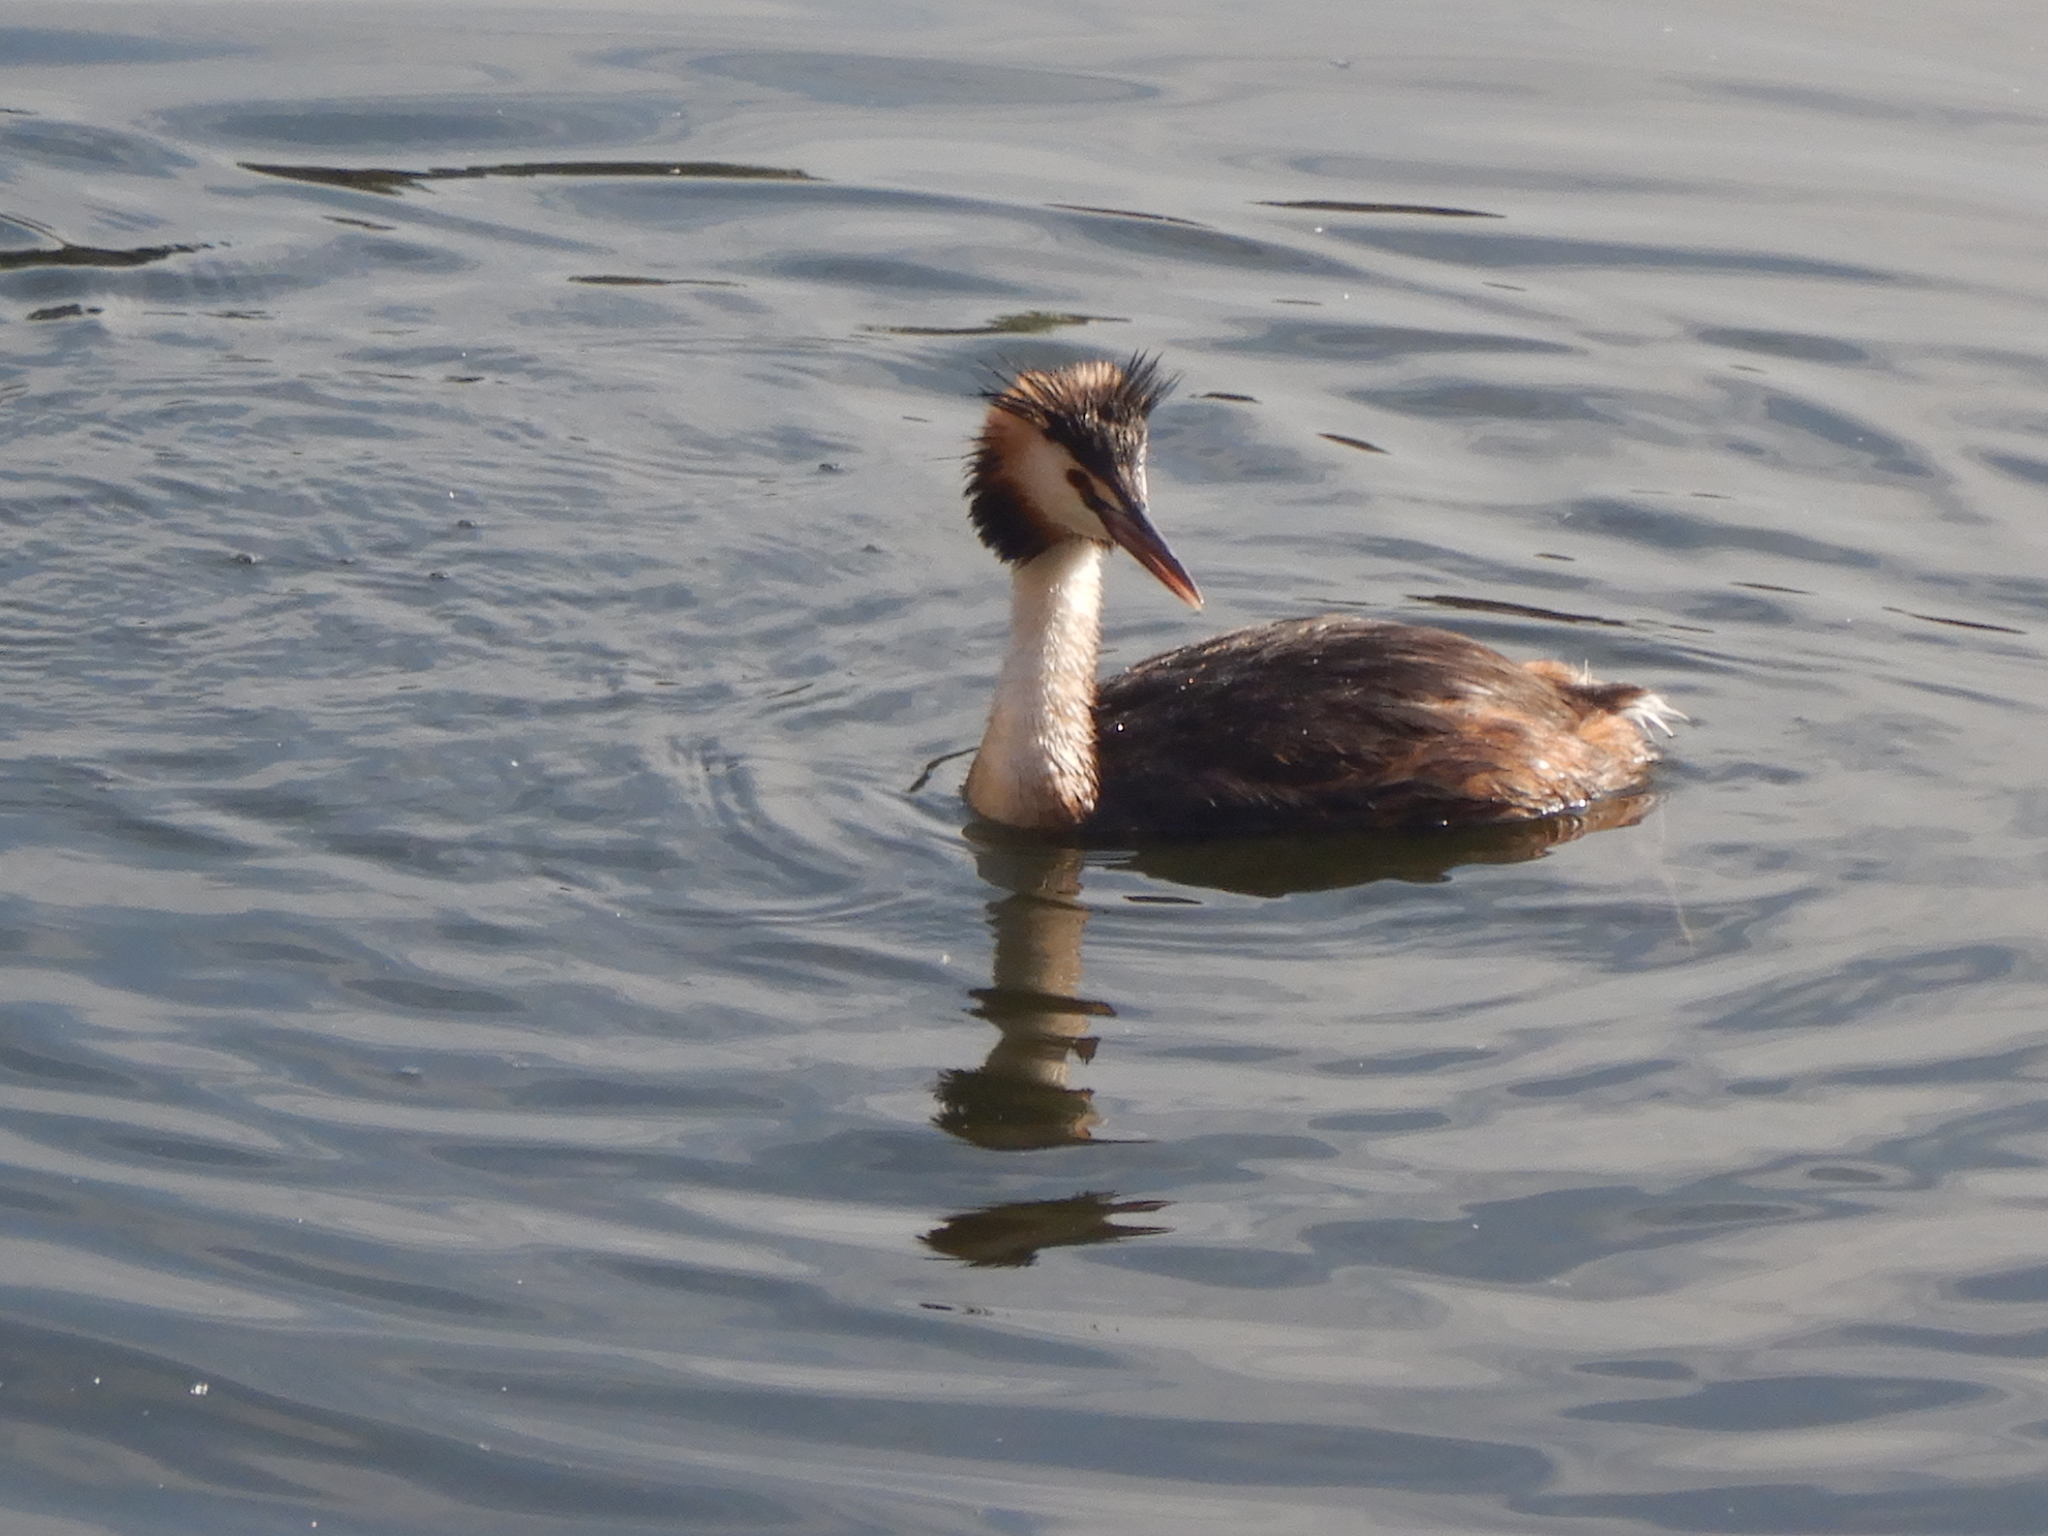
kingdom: Animalia
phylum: Chordata
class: Aves
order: Podicipediformes
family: Podicipedidae
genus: Podiceps
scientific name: Podiceps cristatus
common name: Great crested grebe
